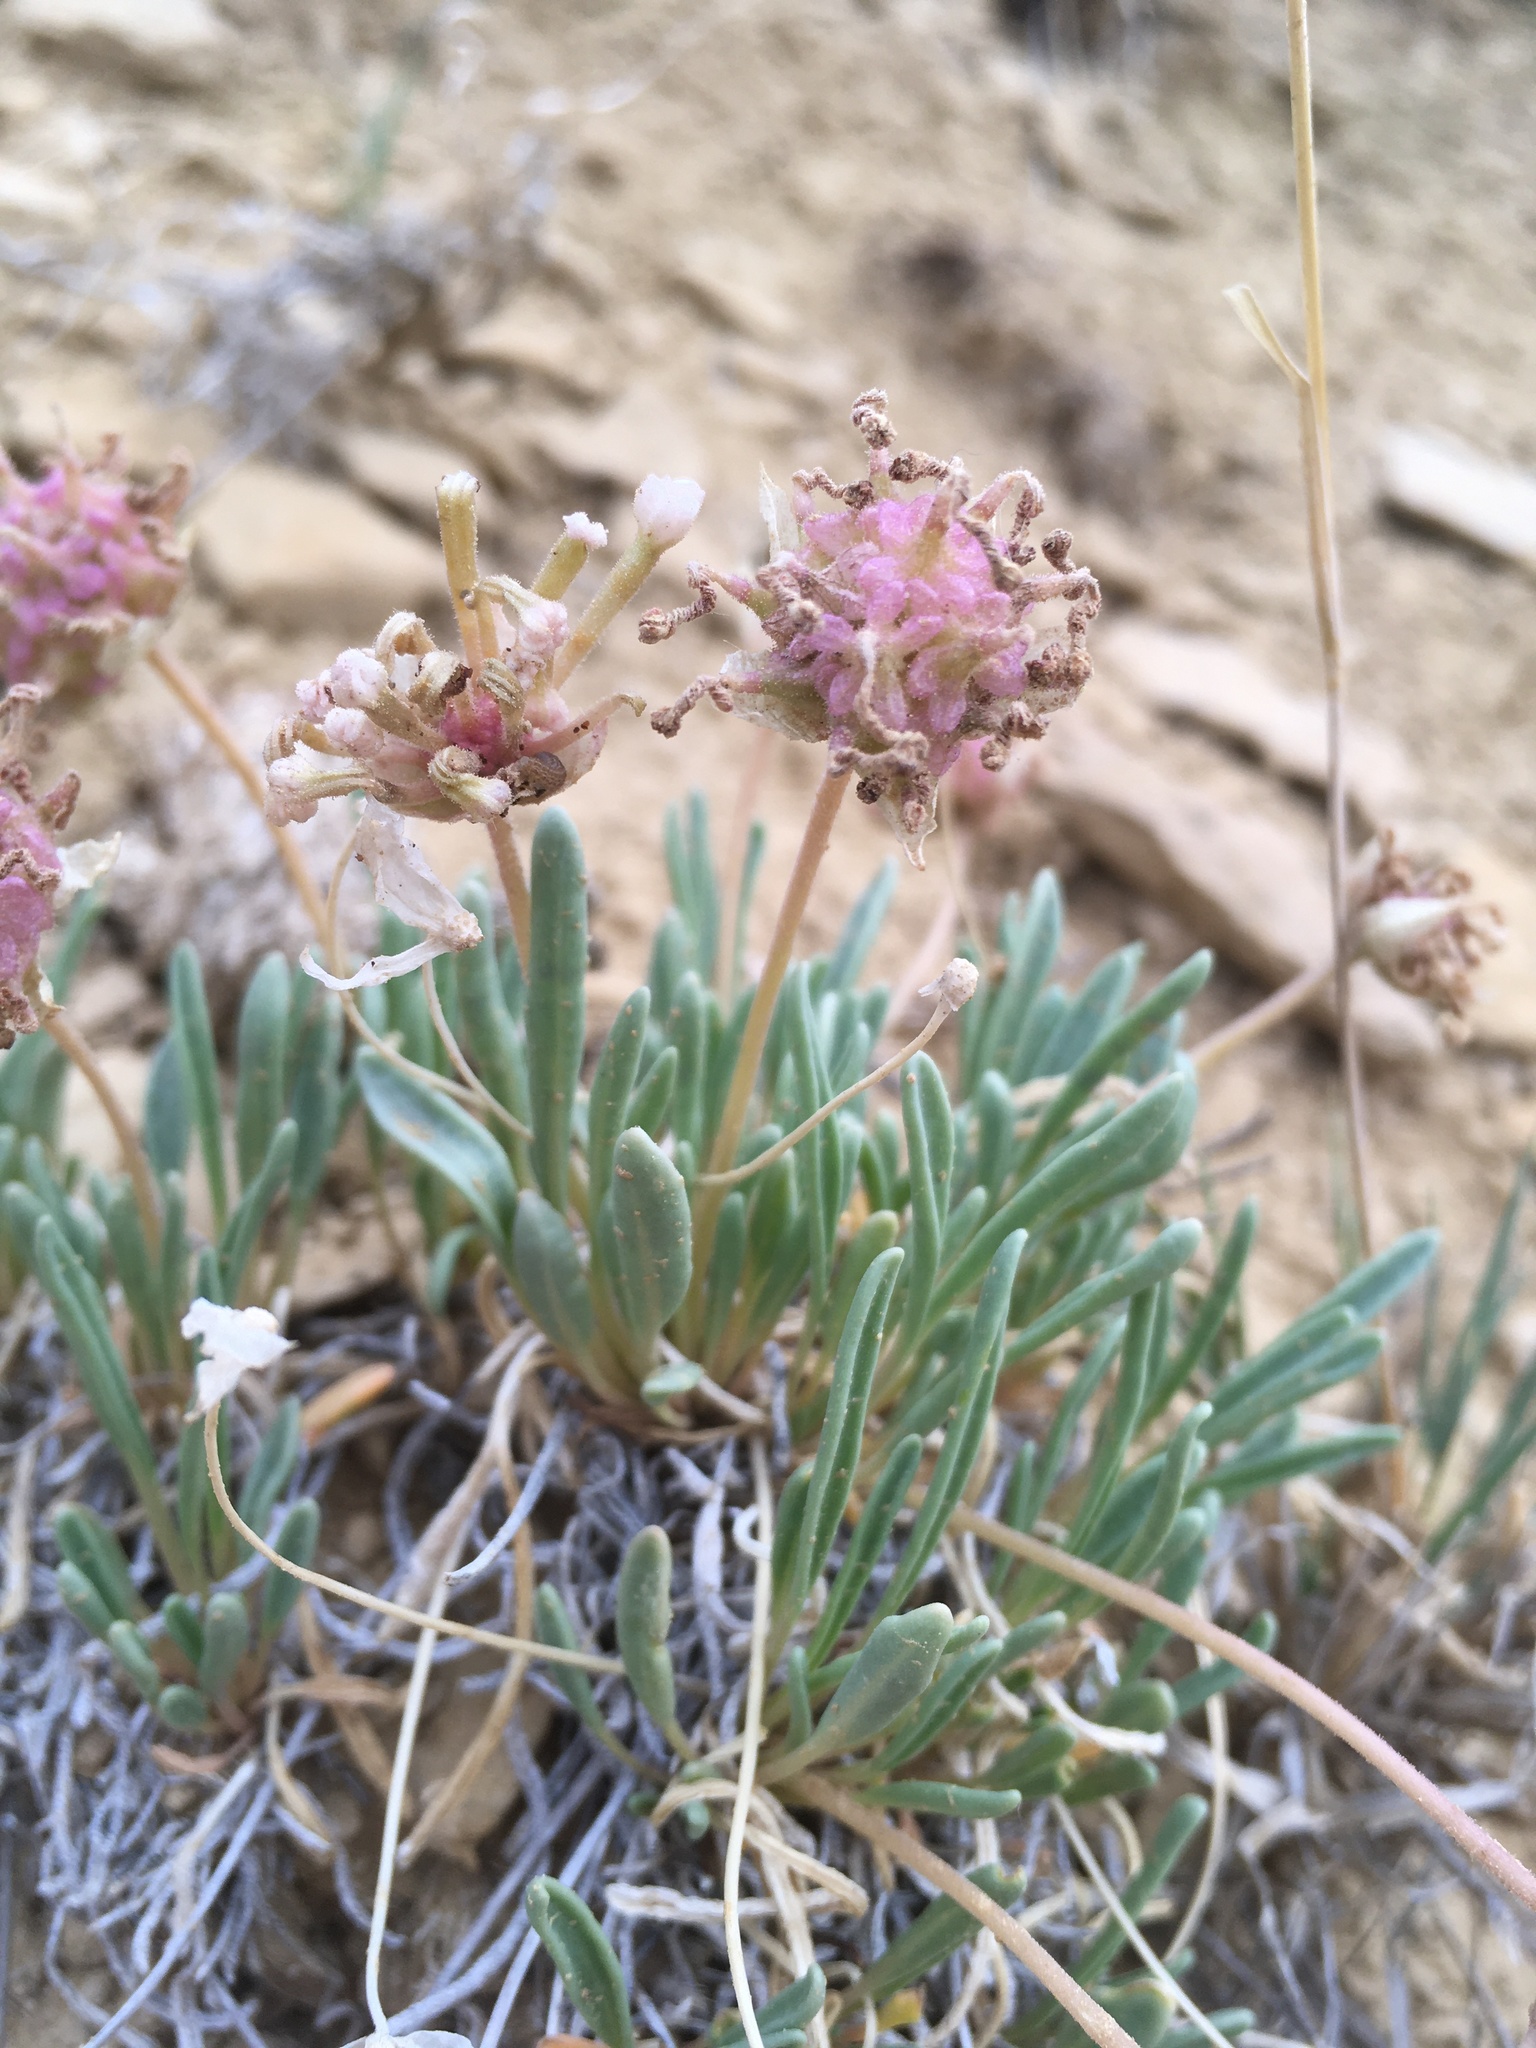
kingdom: Plantae
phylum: Tracheophyta
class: Magnoliopsida
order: Caryophyllales
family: Nyctaginaceae
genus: Abronia
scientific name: Abronia bigelovii
